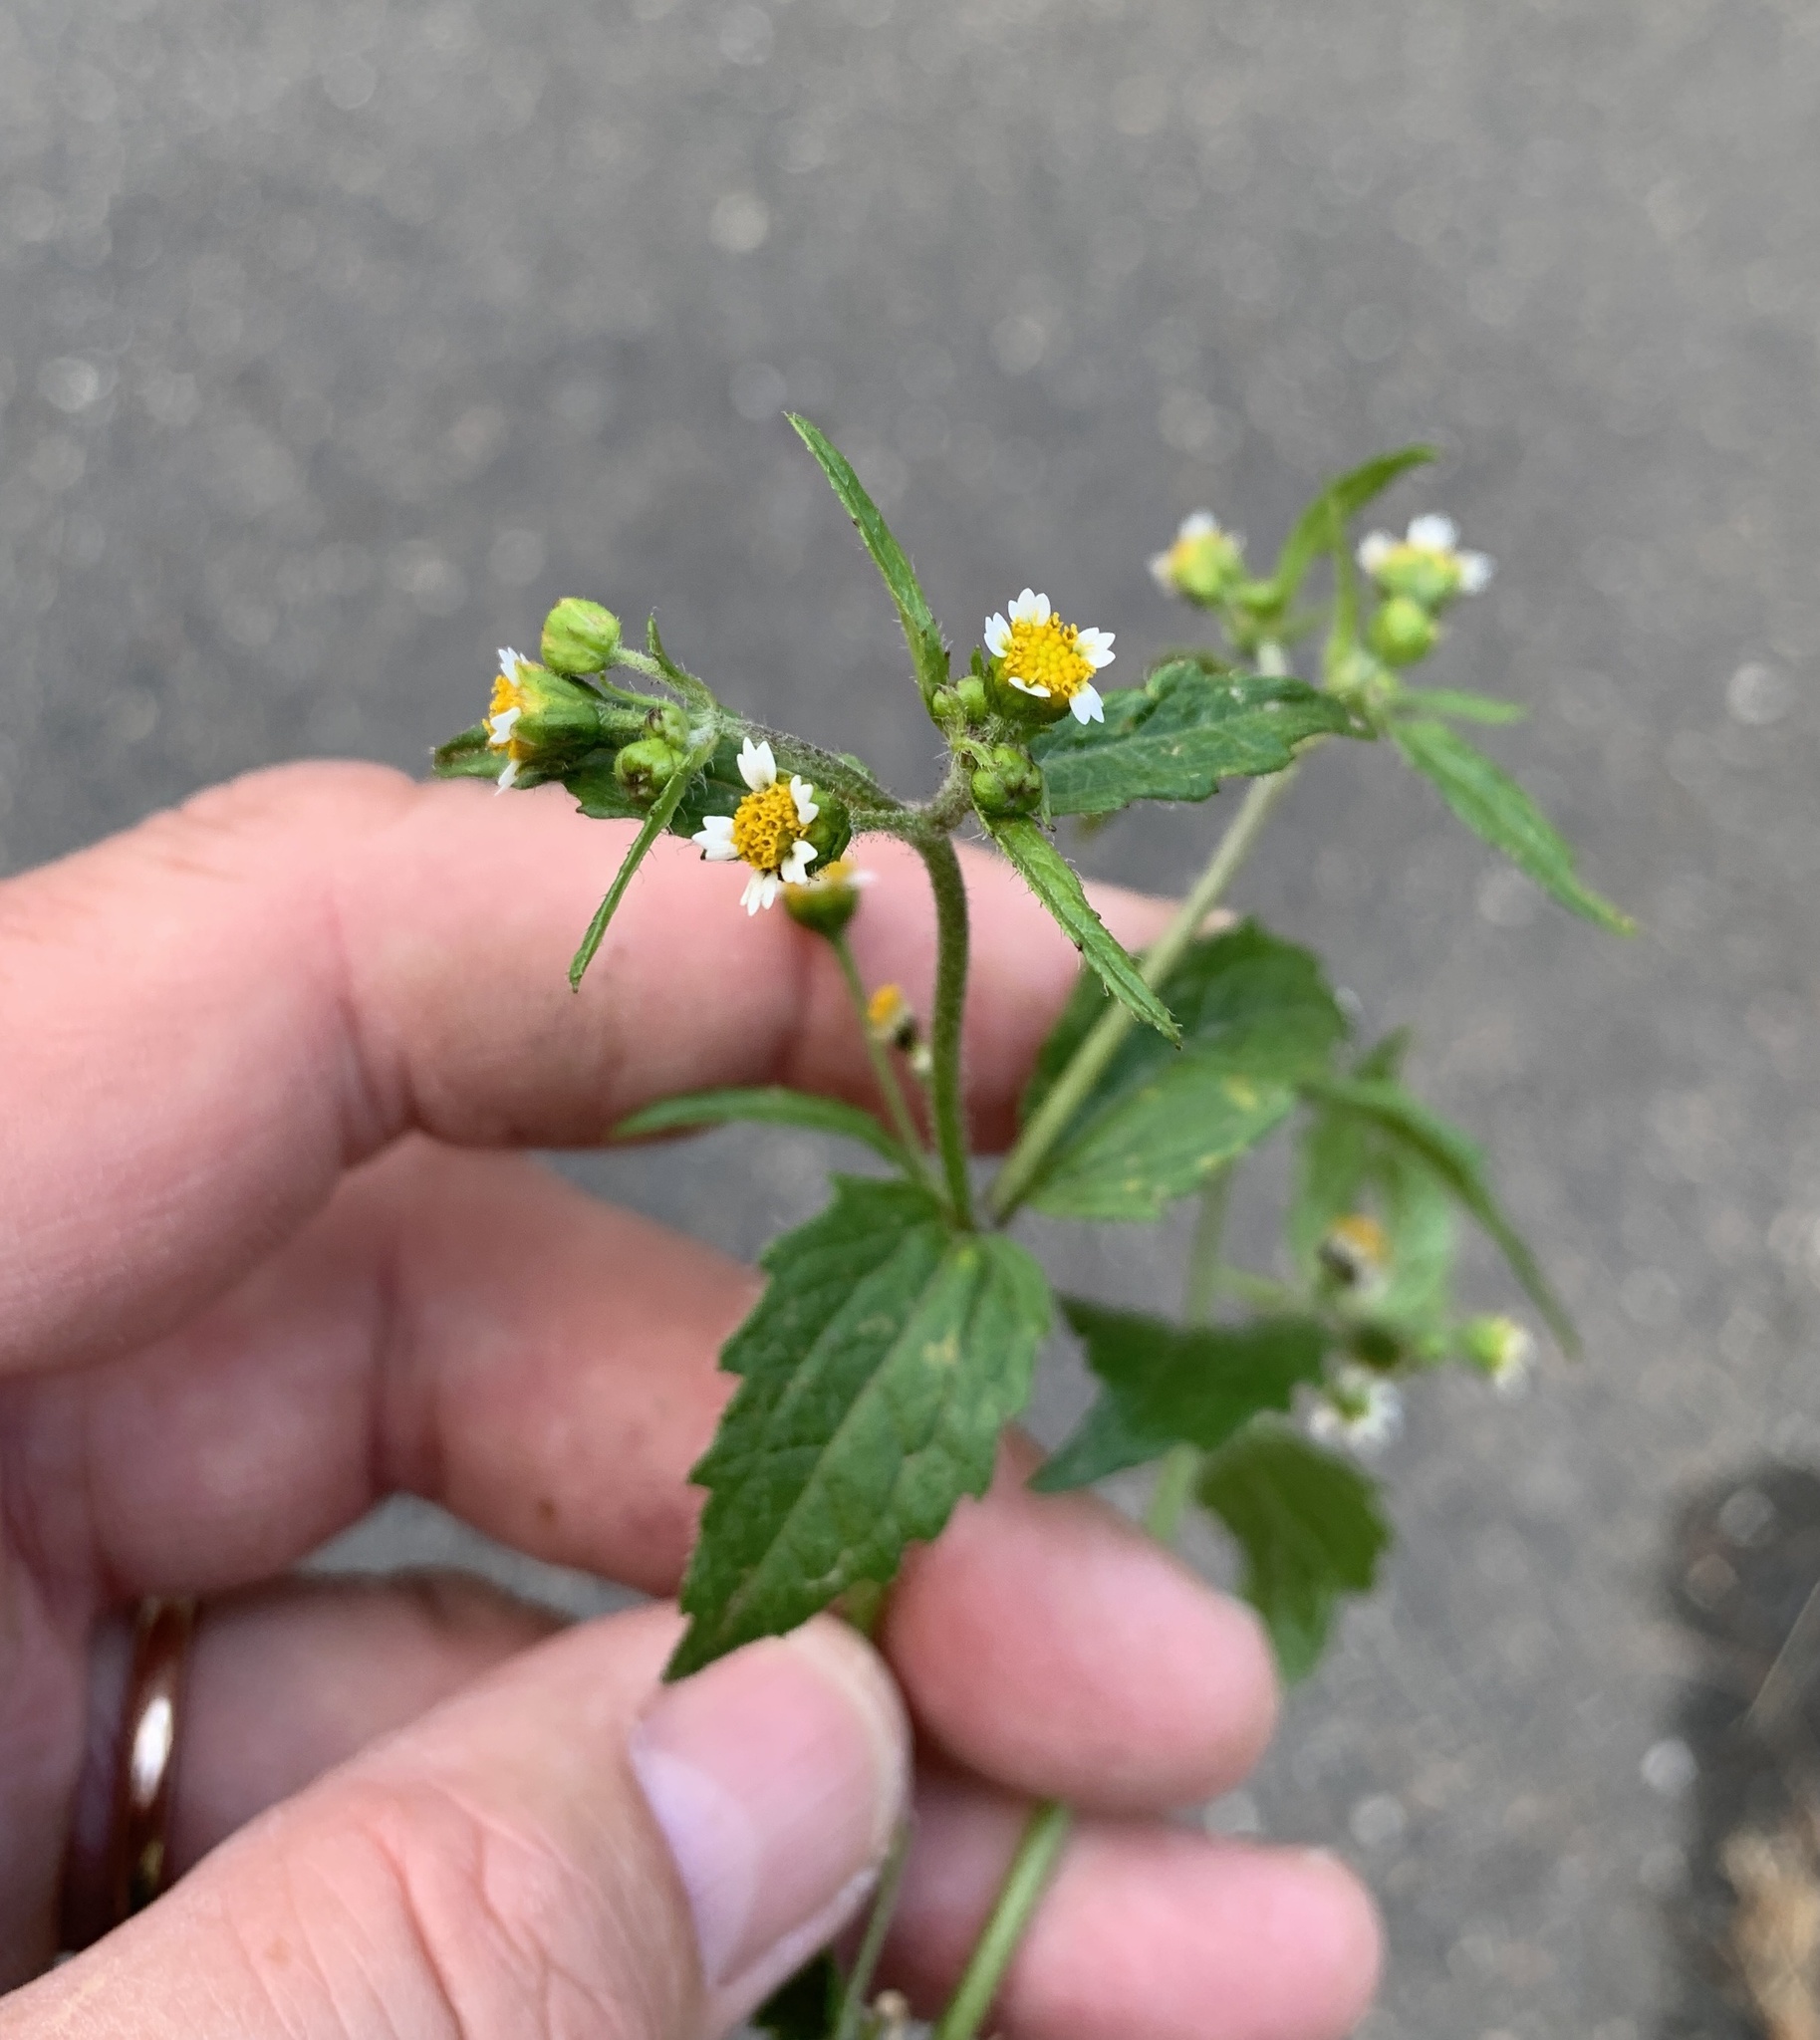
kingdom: Plantae
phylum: Tracheophyta
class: Magnoliopsida
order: Asterales
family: Asteraceae
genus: Galinsoga
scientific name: Galinsoga quadriradiata
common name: Shaggy soldier
